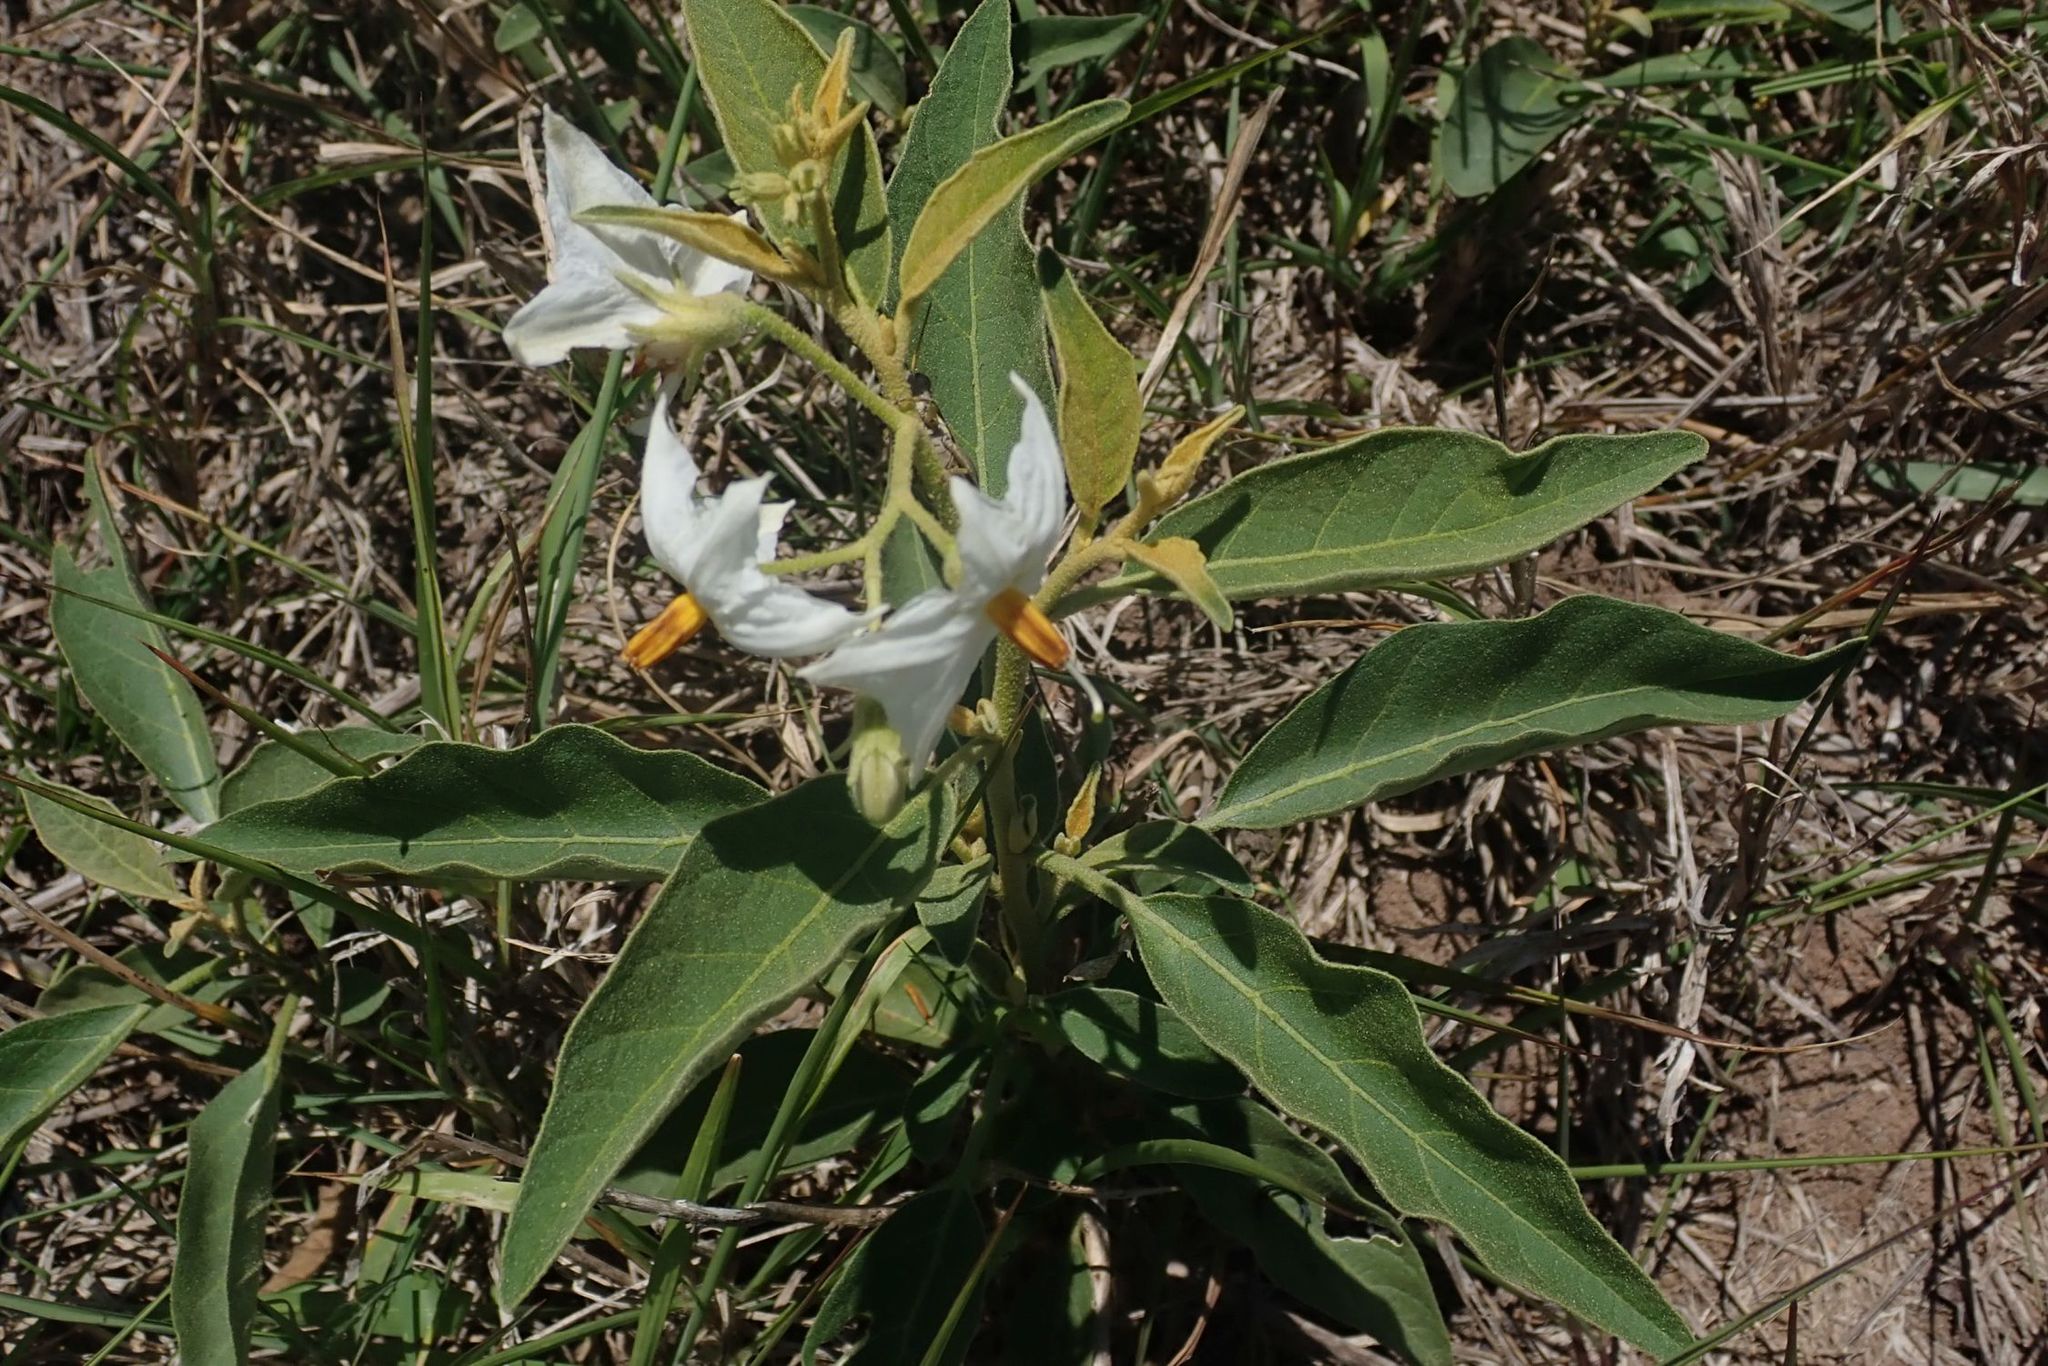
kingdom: Plantae
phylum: Tracheophyta
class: Magnoliopsida
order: Solanales
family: Solanaceae
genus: Solanum
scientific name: Solanum campylacanthum
